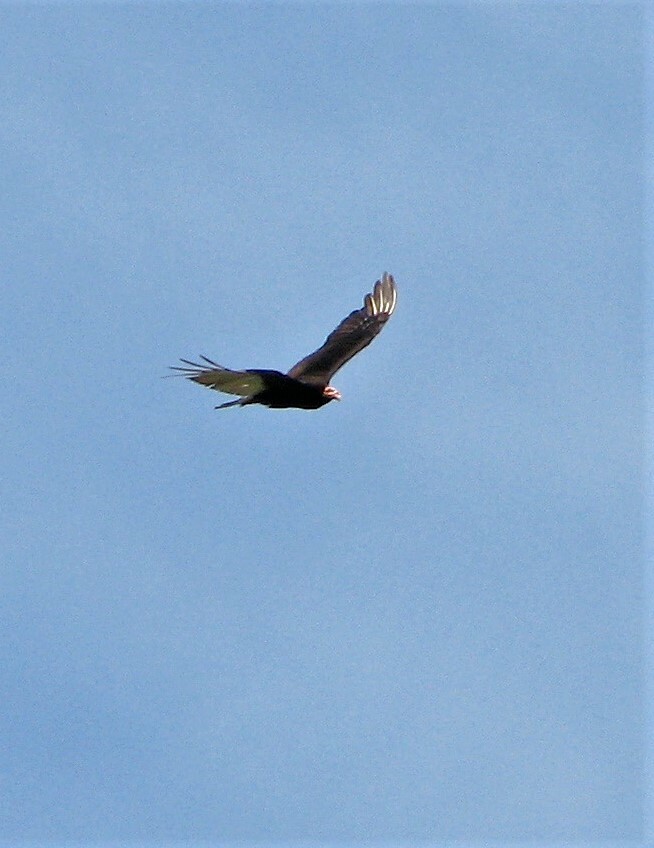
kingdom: Animalia
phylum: Chordata
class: Aves
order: Accipitriformes
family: Cathartidae
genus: Cathartes
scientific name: Cathartes burrovianus
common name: Lesser yellow-headed vulture
